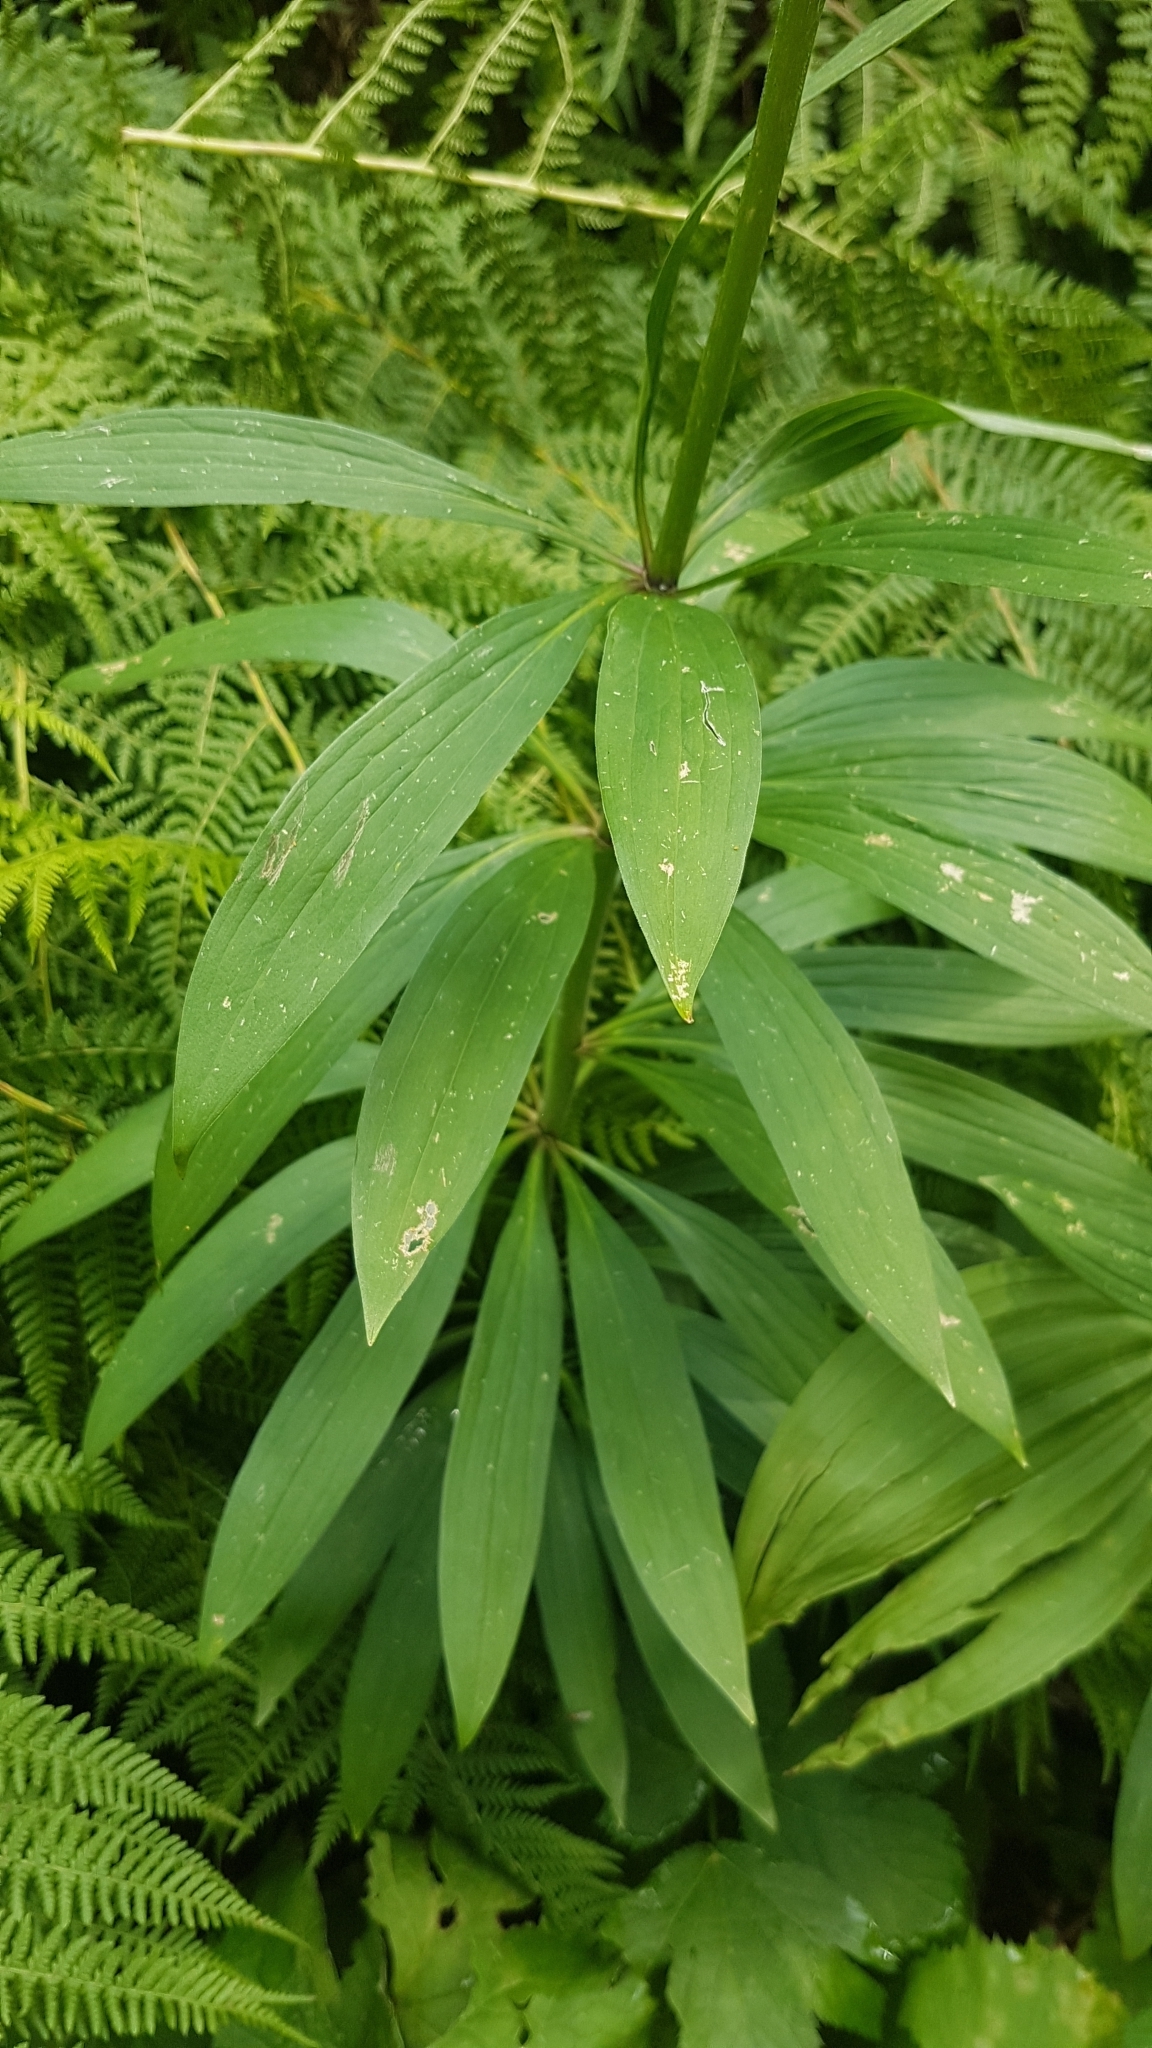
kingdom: Plantae
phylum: Tracheophyta
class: Liliopsida
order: Liliales
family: Liliaceae
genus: Lilium
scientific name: Lilium martagon
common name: Martagon lily
